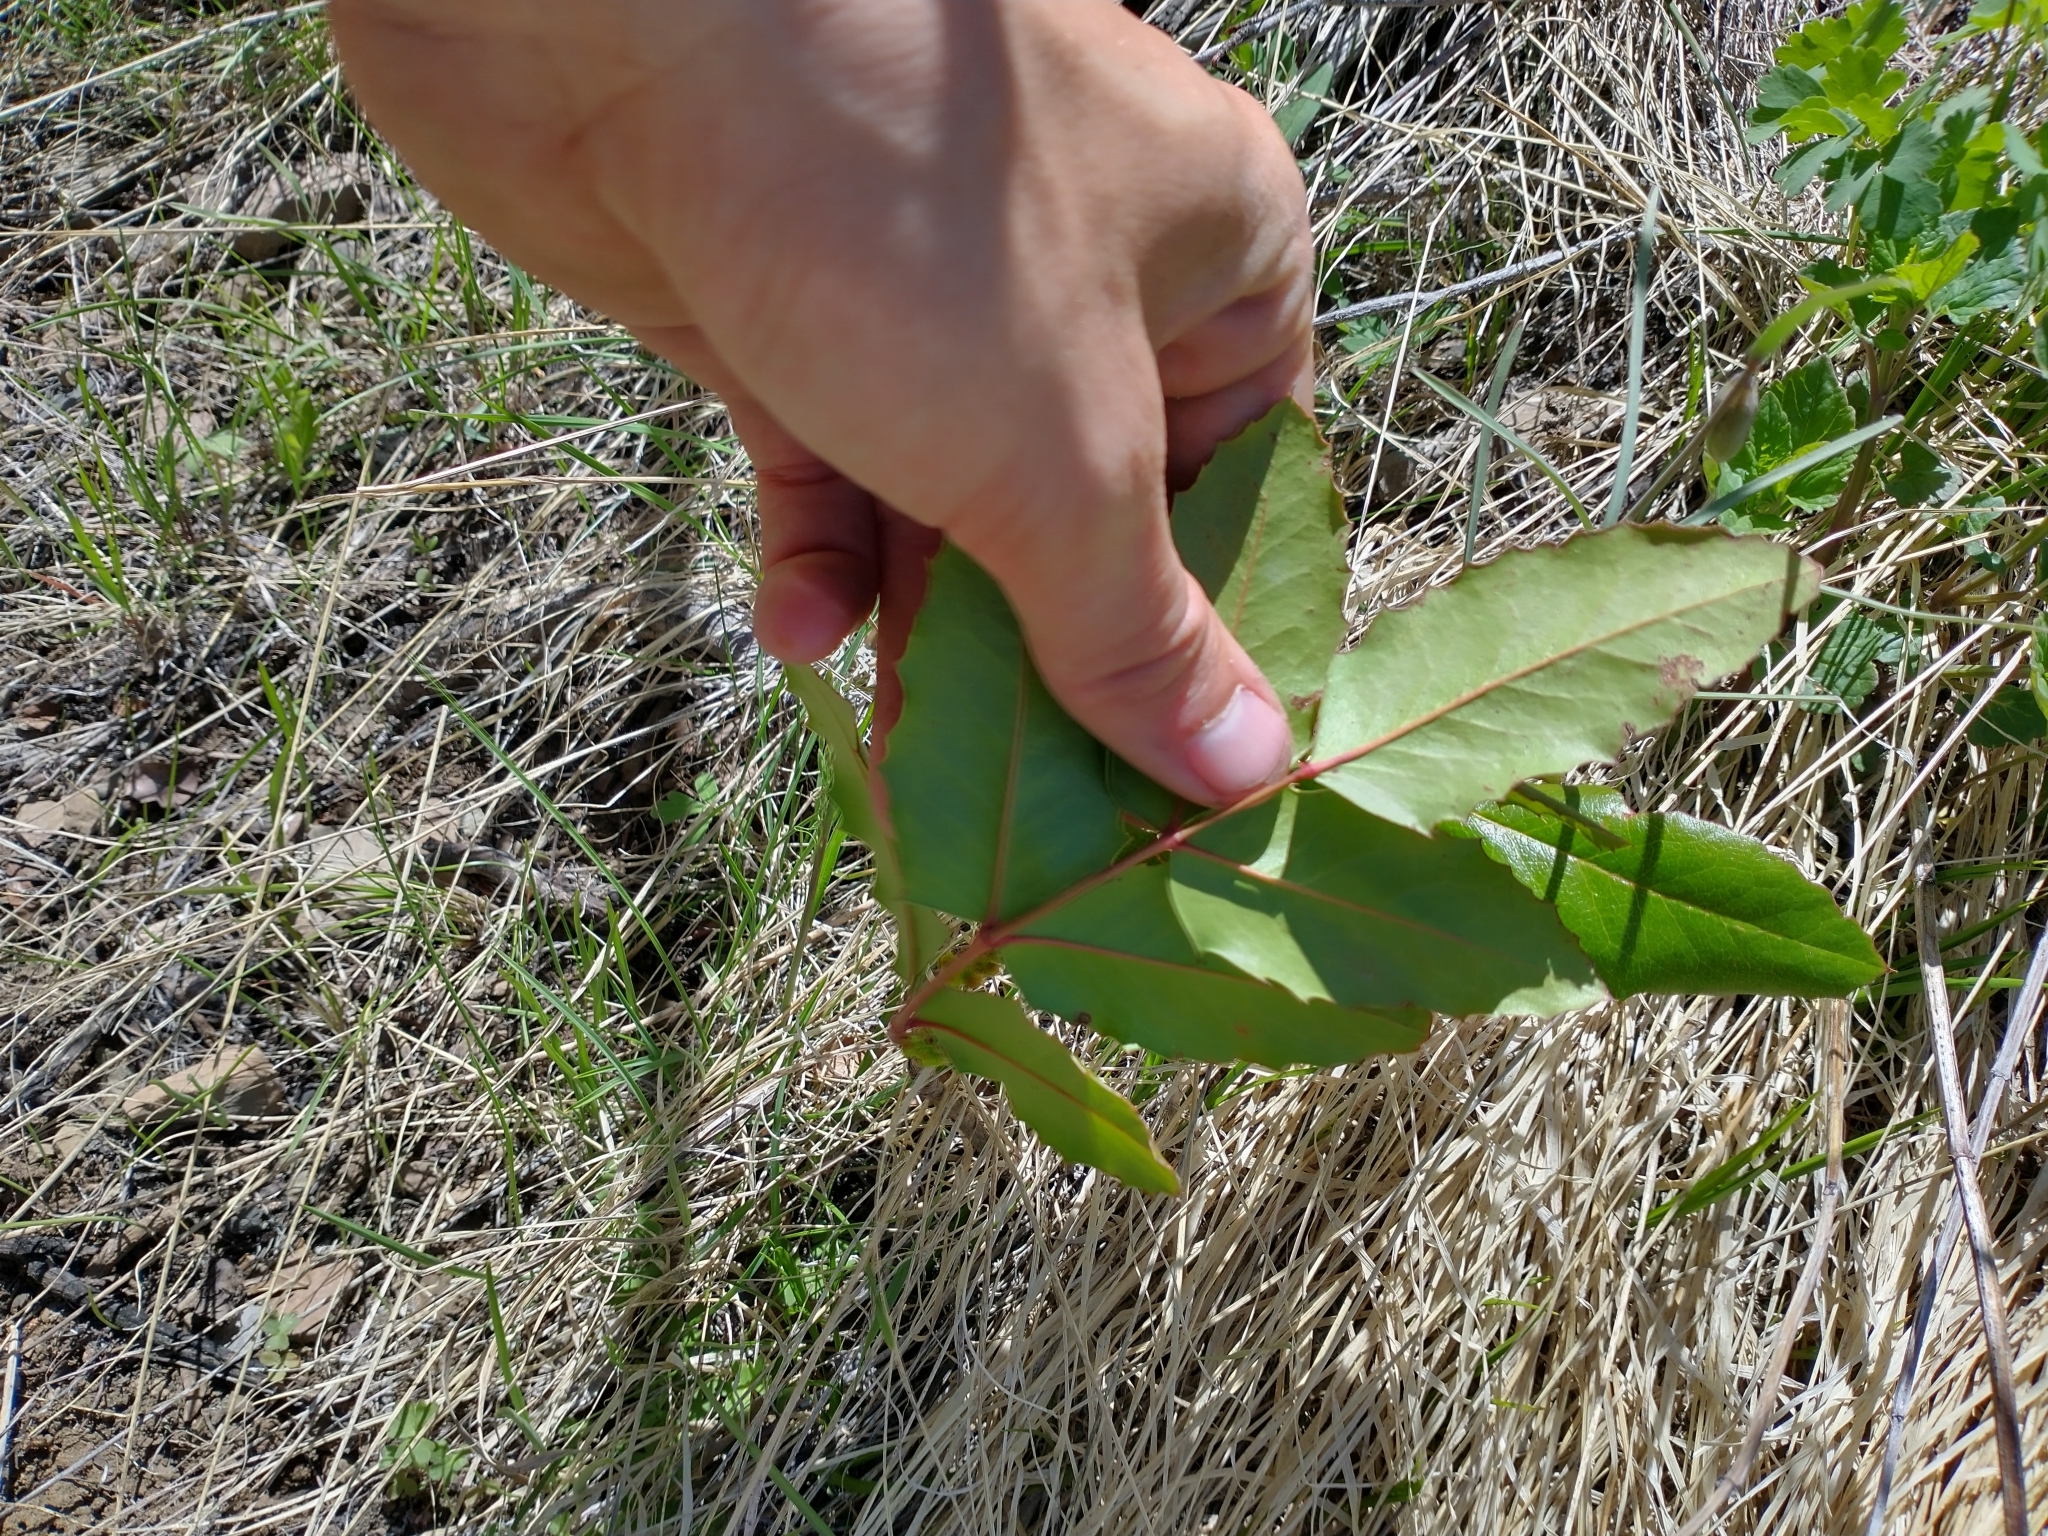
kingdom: Plantae
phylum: Tracheophyta
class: Magnoliopsida
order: Ranunculales
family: Berberidaceae
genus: Mahonia
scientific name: Mahonia repens
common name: Creeping oregon-grape
